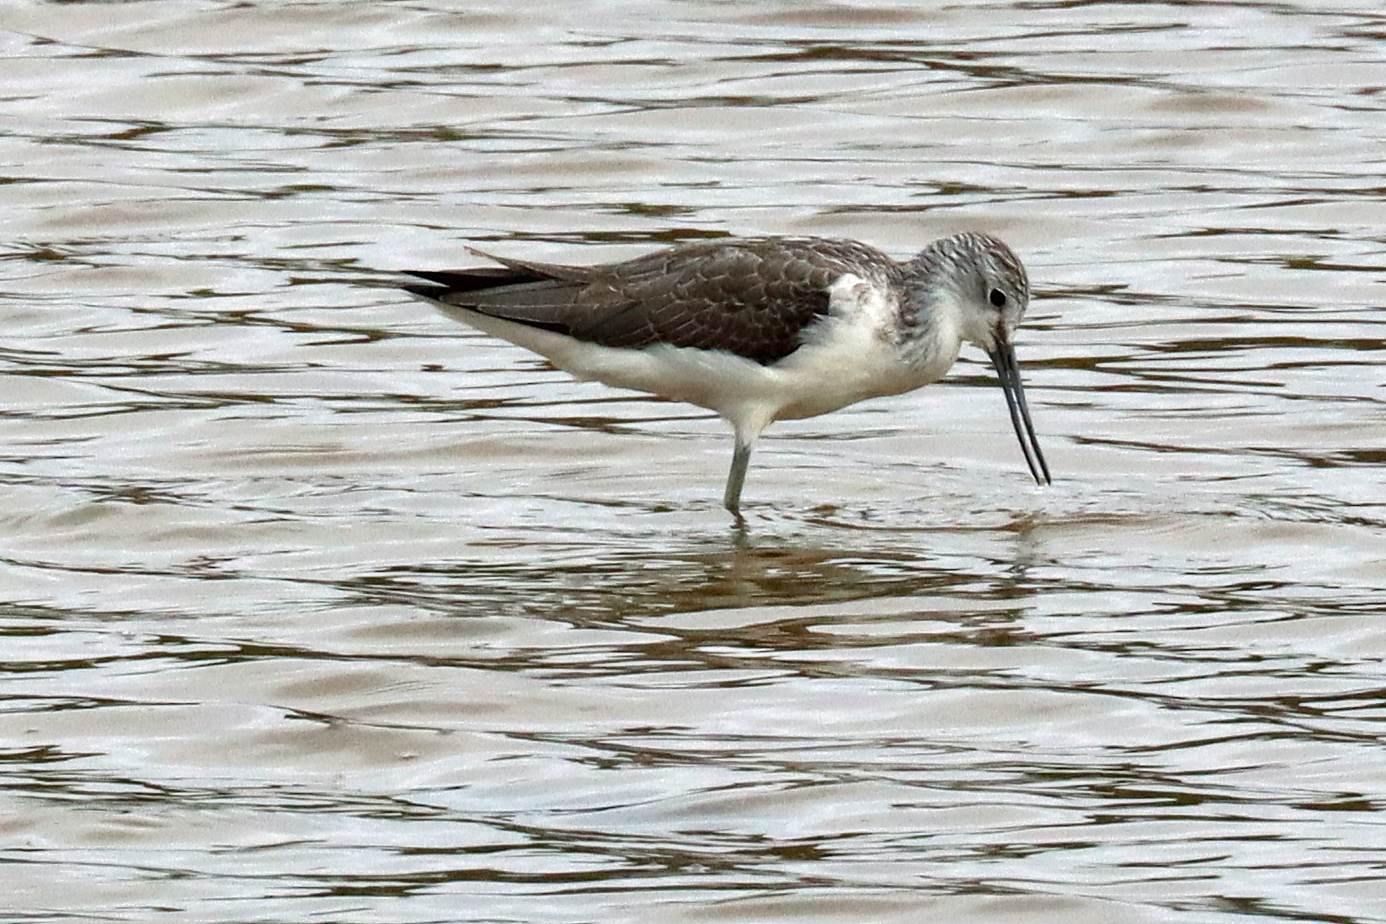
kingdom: Animalia
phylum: Chordata
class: Aves
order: Charadriiformes
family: Scolopacidae
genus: Tringa
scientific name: Tringa nebularia
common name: Common greenshank
